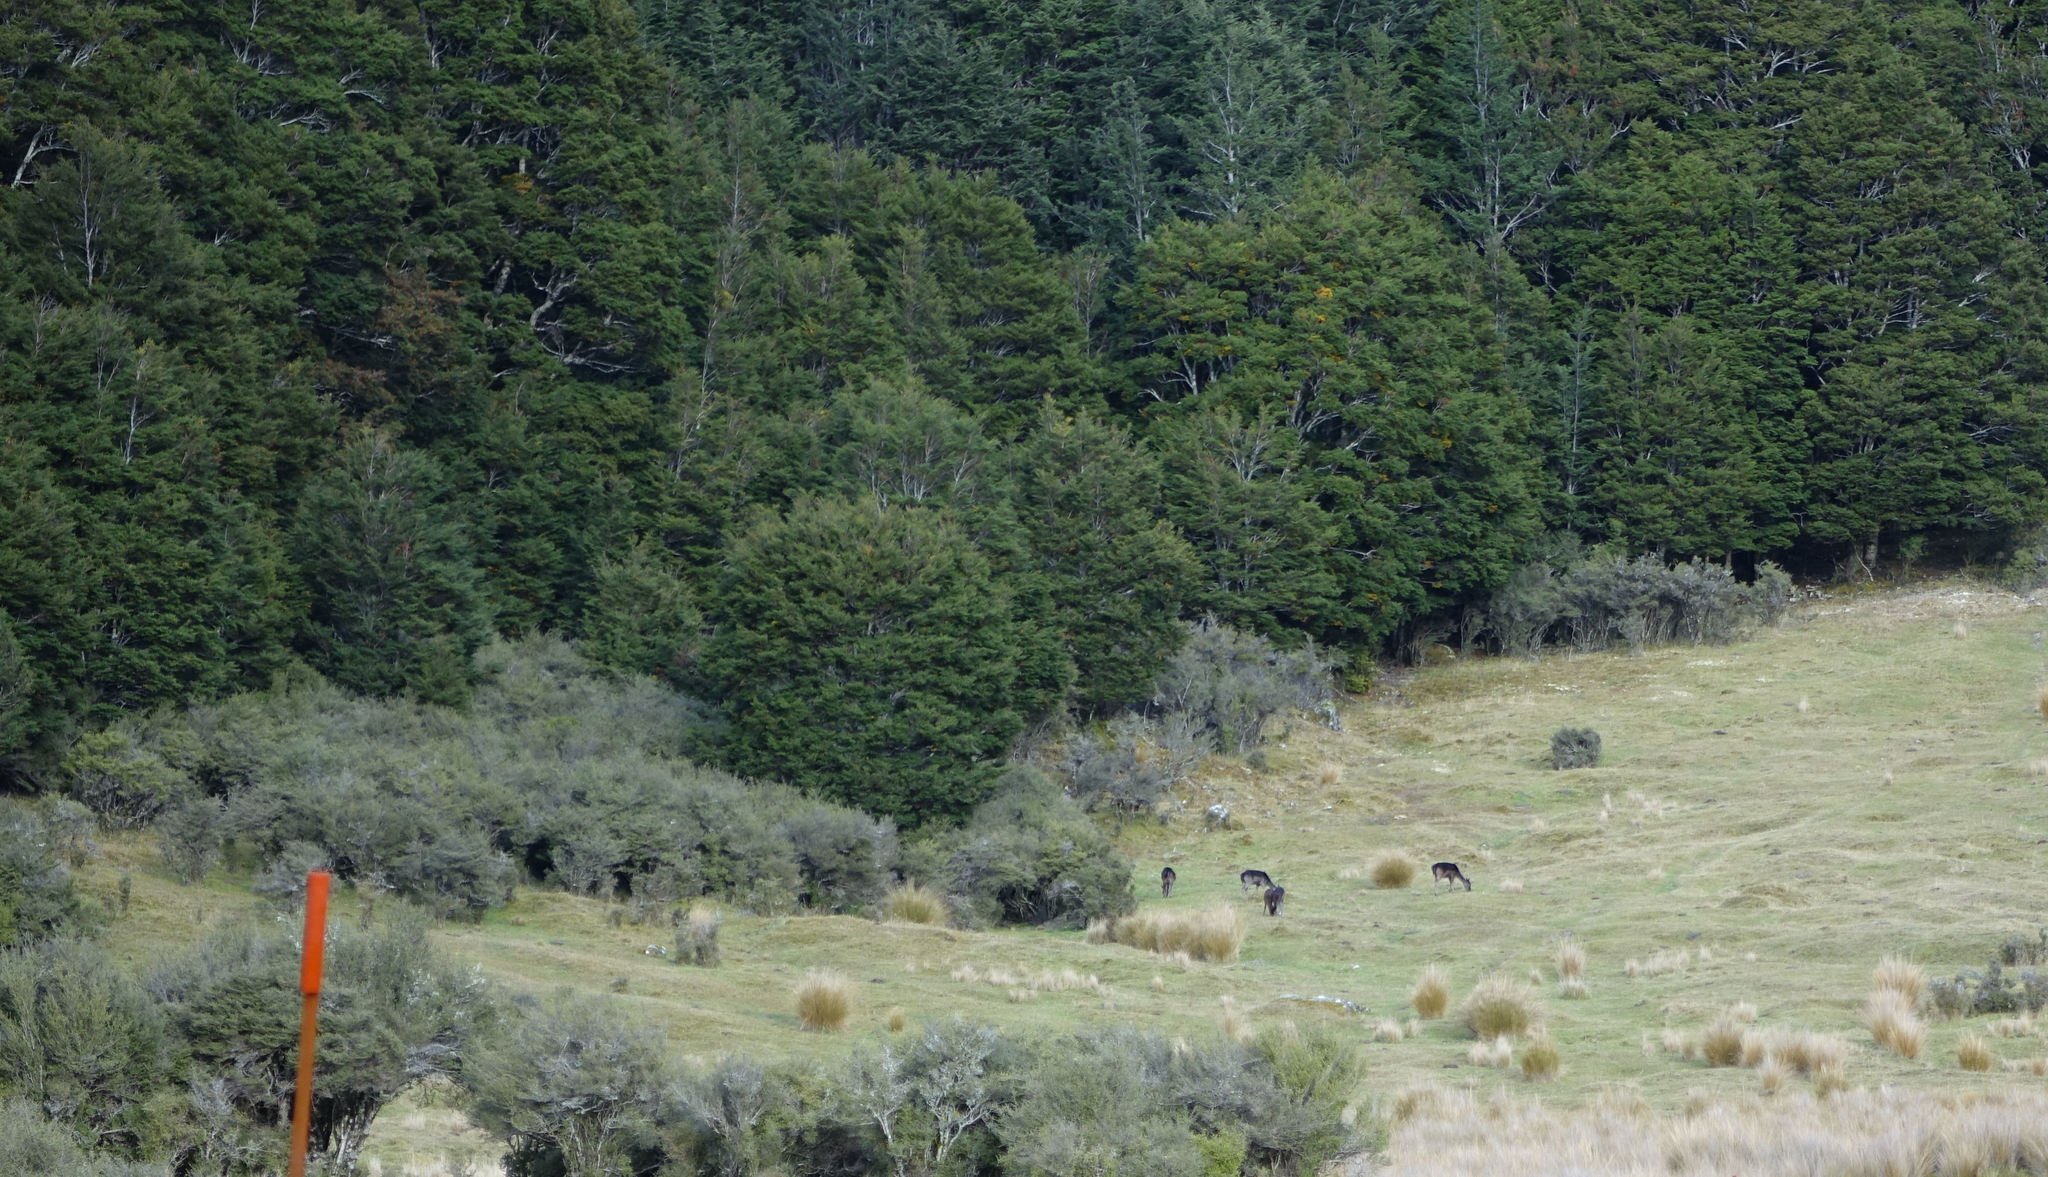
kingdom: Animalia
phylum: Chordata
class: Mammalia
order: Artiodactyla
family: Cervidae
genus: Dama
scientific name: Dama dama
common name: Fallow deer
